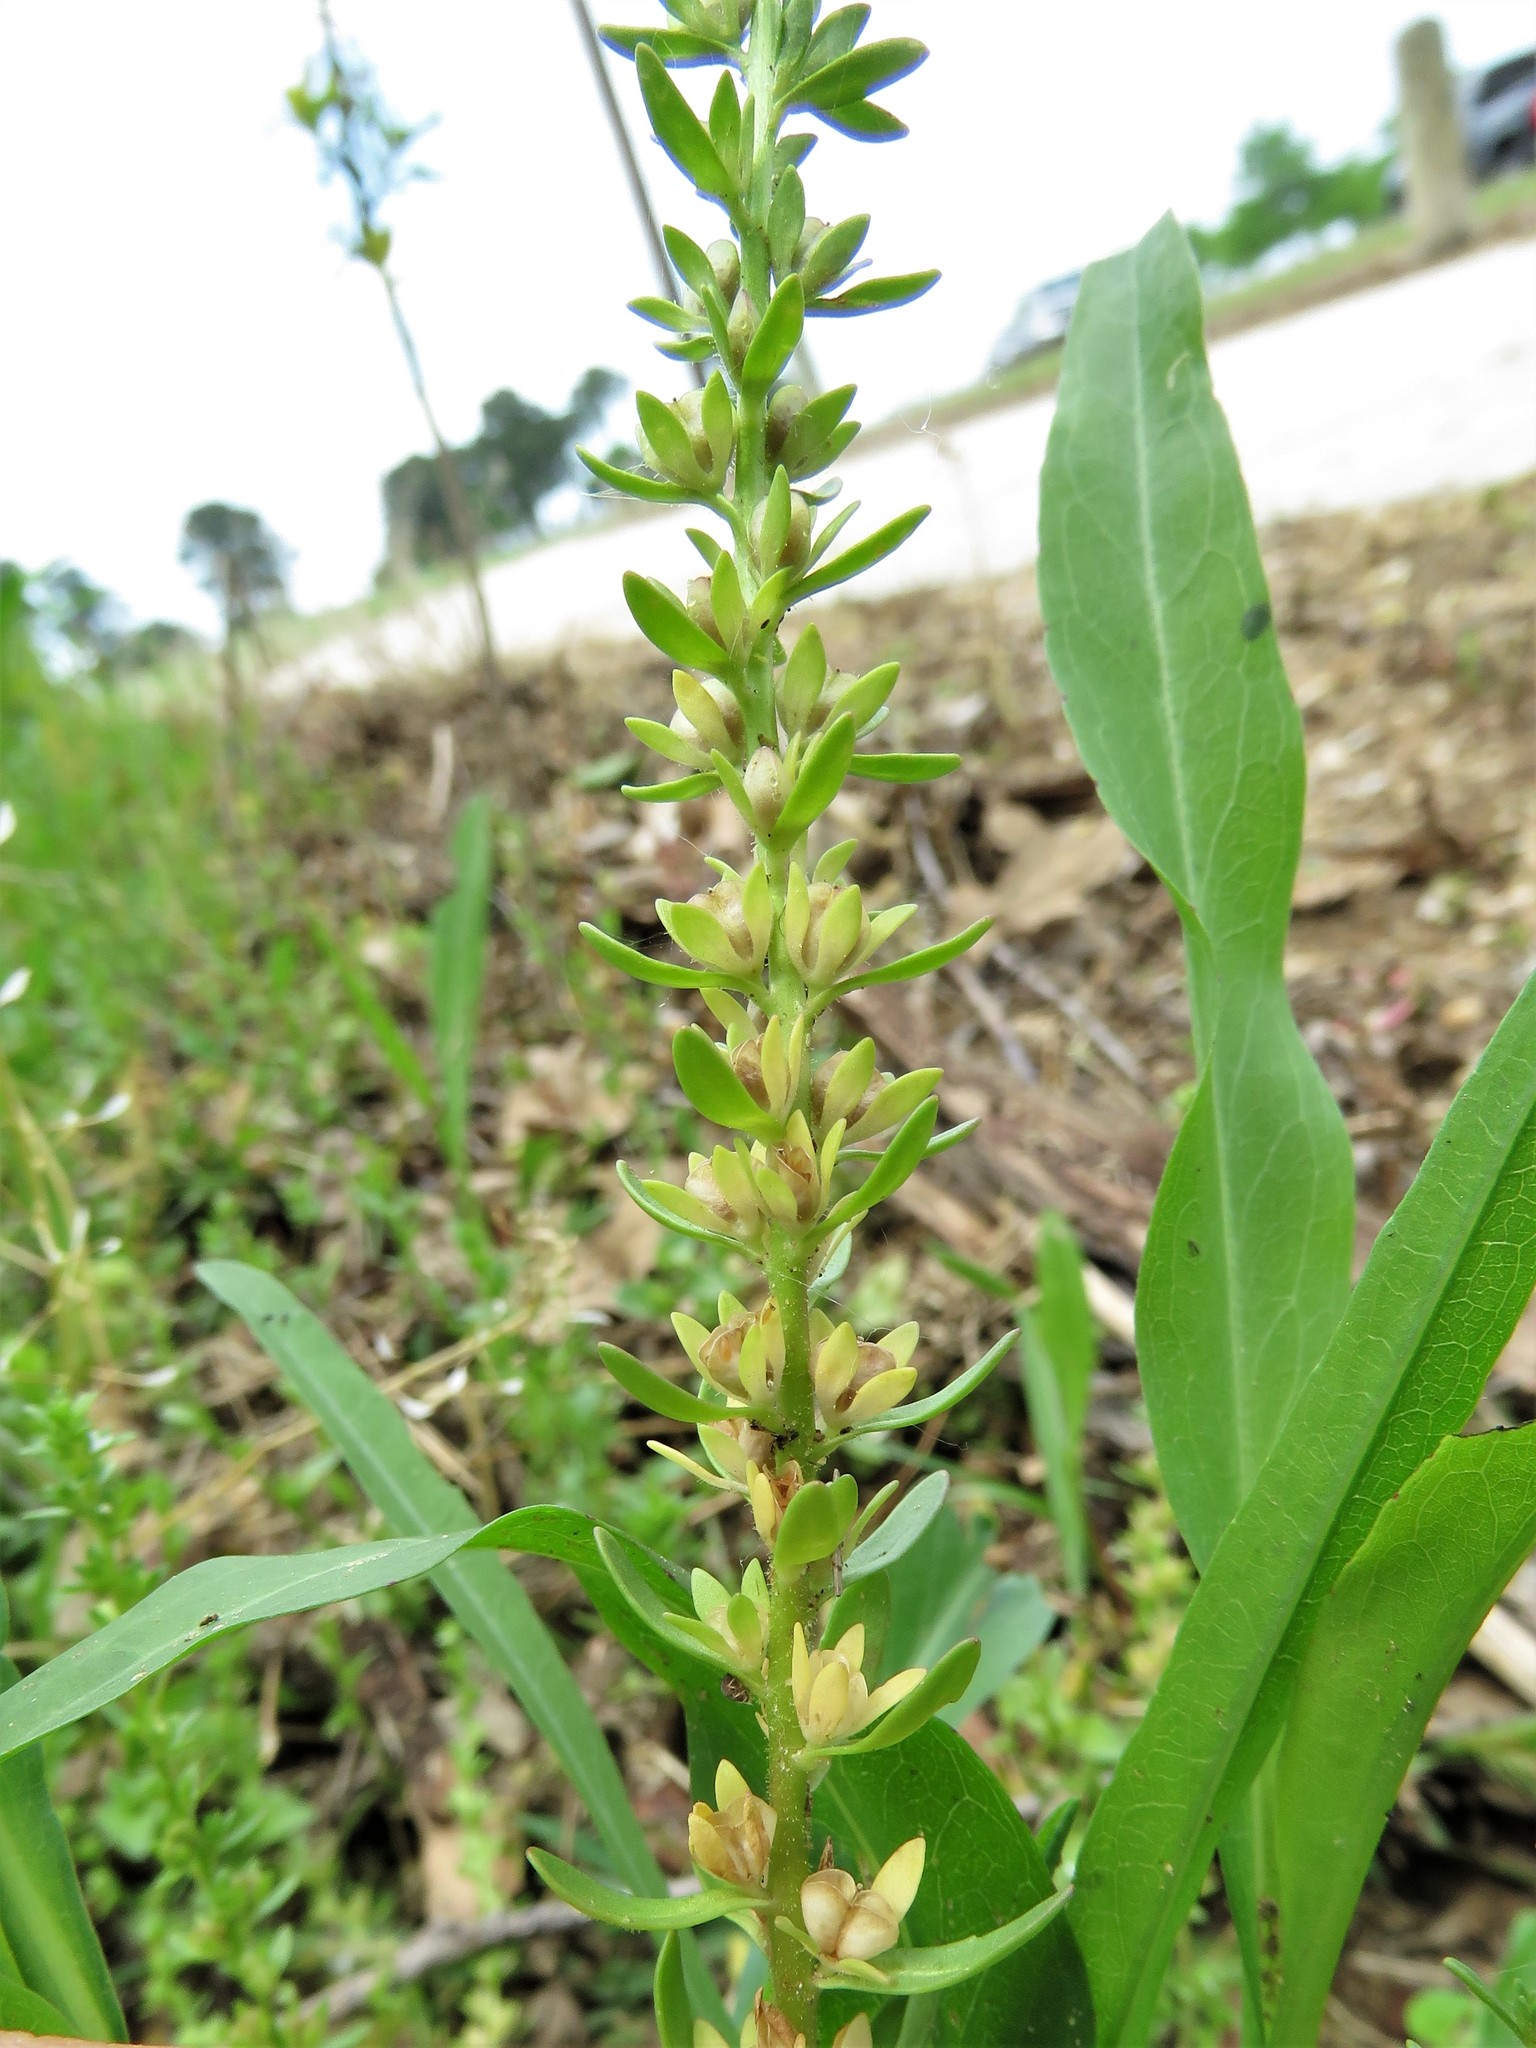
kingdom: Plantae
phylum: Tracheophyta
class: Magnoliopsida
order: Lamiales
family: Plantaginaceae
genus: Veronica
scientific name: Veronica peregrina
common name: Neckweed
